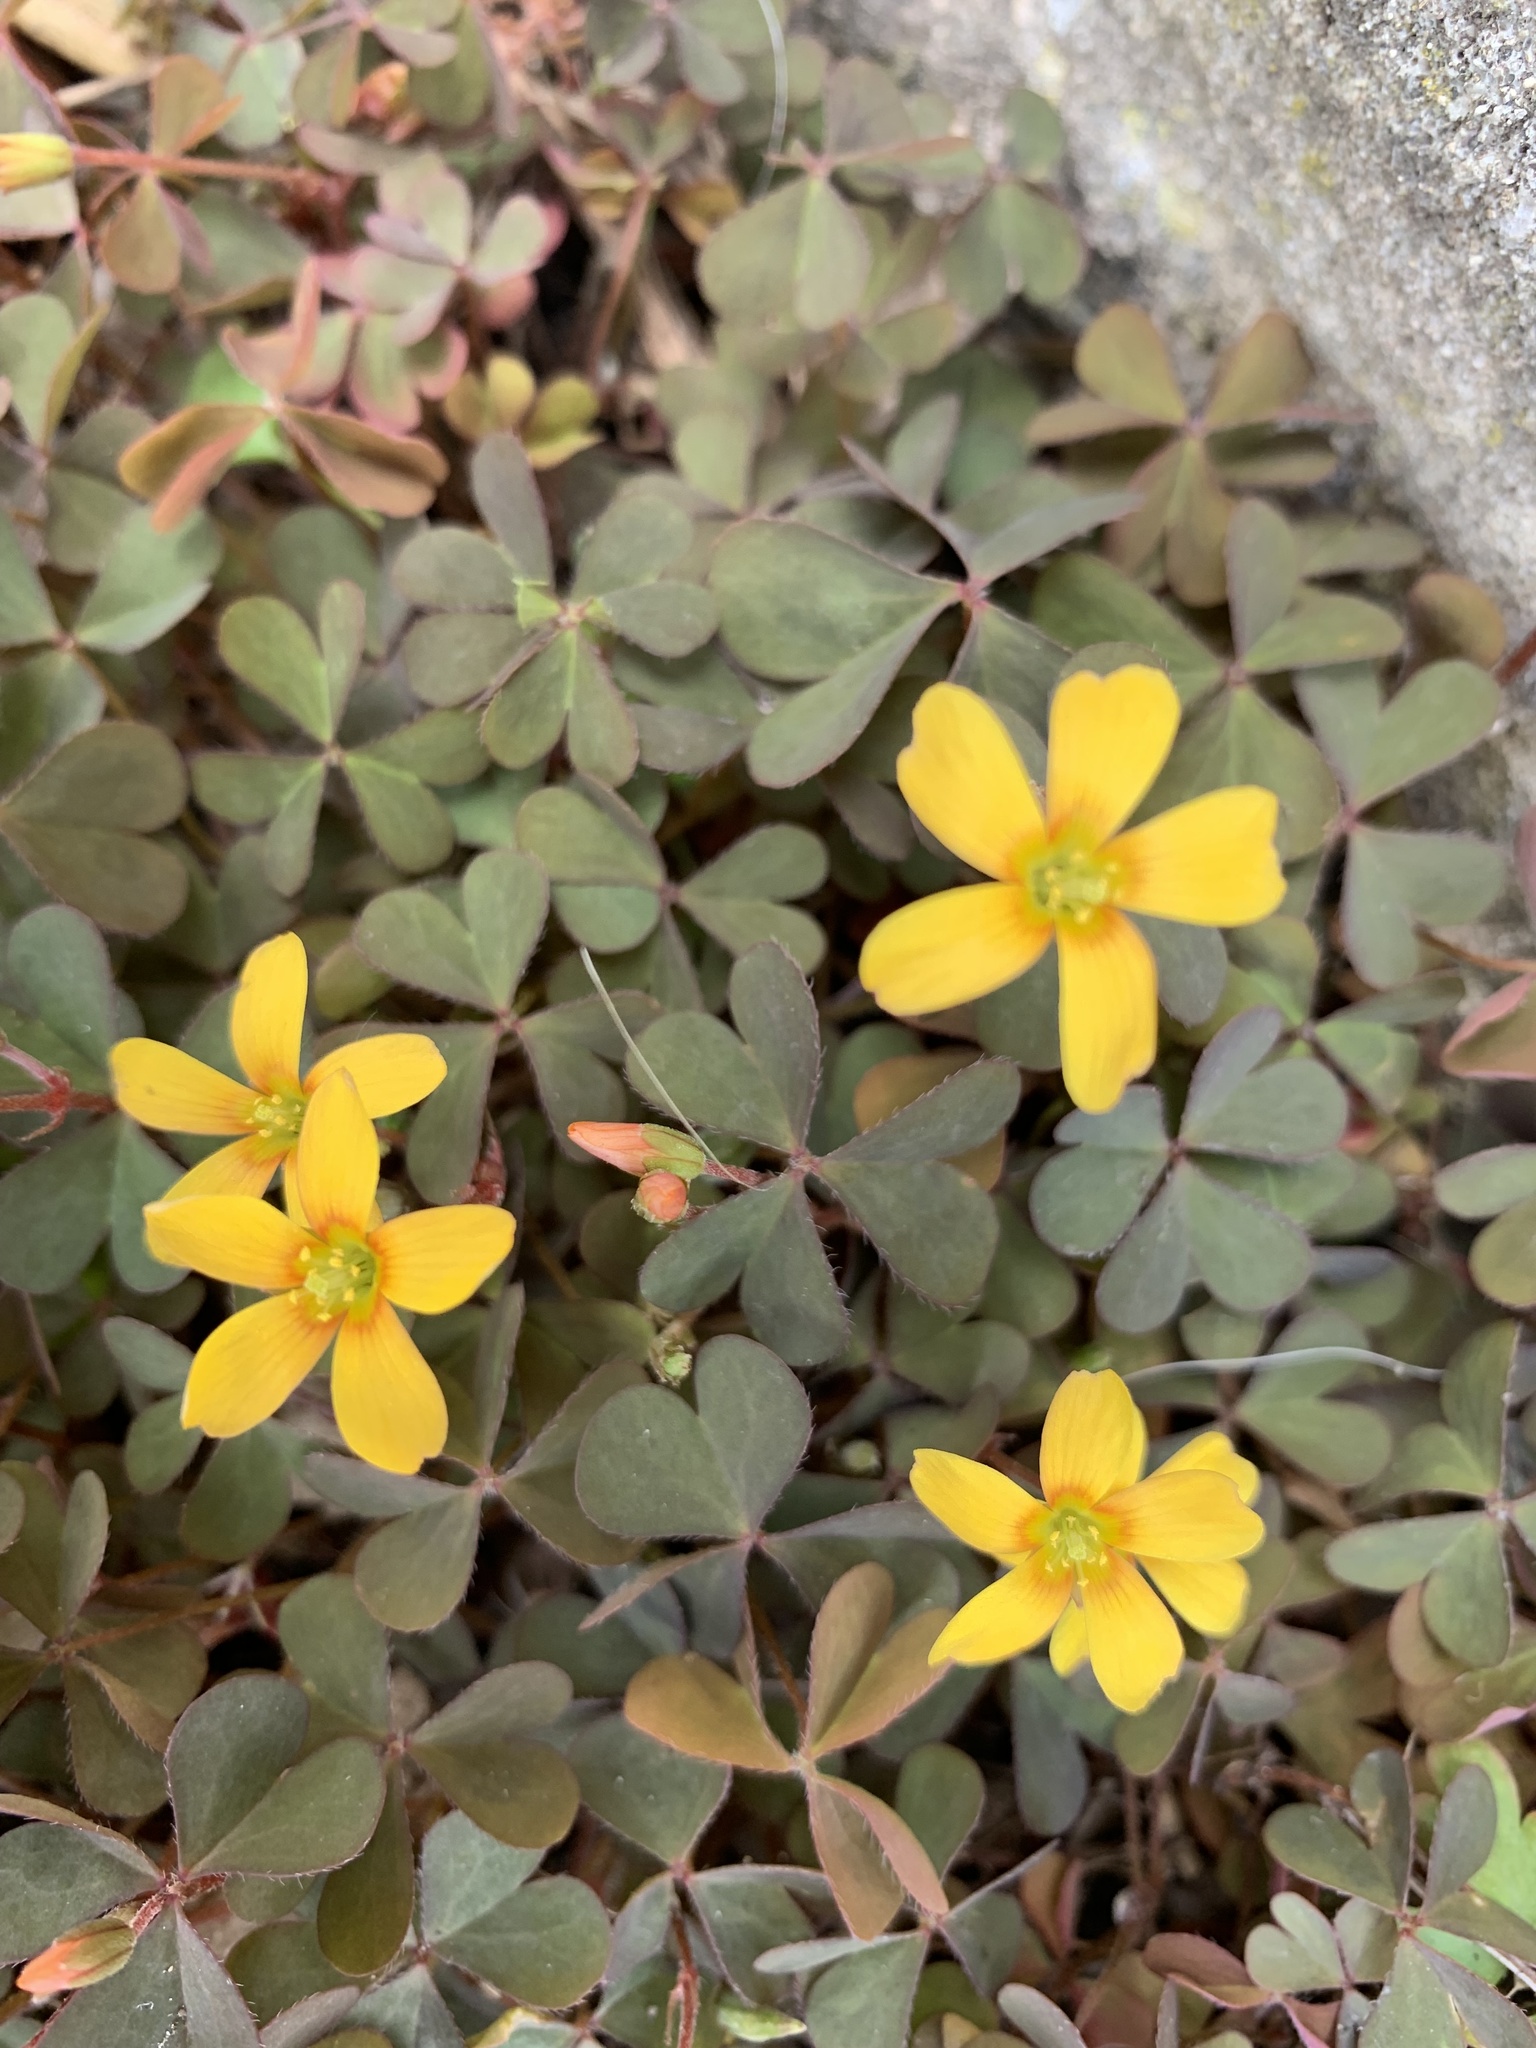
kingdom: Plantae
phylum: Tracheophyta
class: Magnoliopsida
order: Oxalidales
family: Oxalidaceae
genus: Oxalis
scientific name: Oxalis corniculata
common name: Procumbent yellow-sorrel
